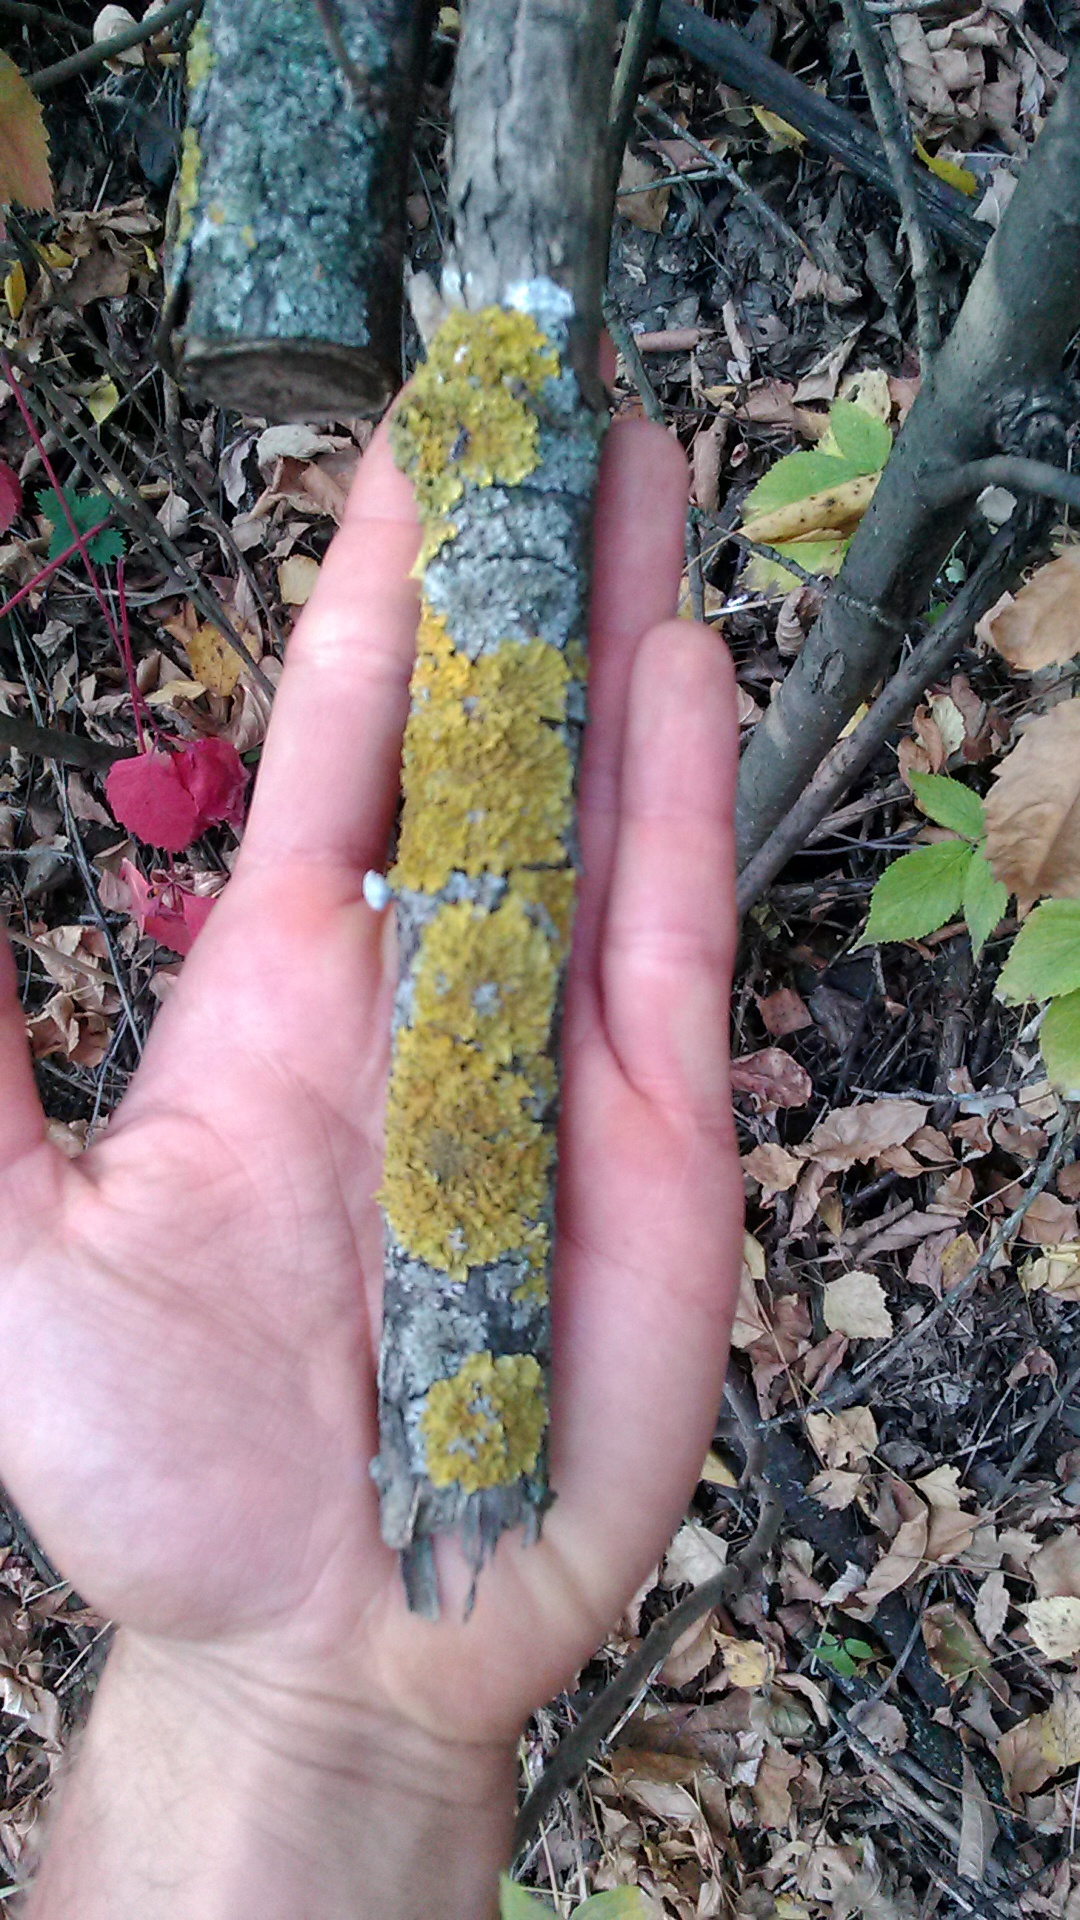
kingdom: Fungi
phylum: Ascomycota
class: Lecanoromycetes
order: Teloschistales
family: Teloschistaceae
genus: Xanthoria
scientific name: Xanthoria parietina
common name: Common orange lichen
